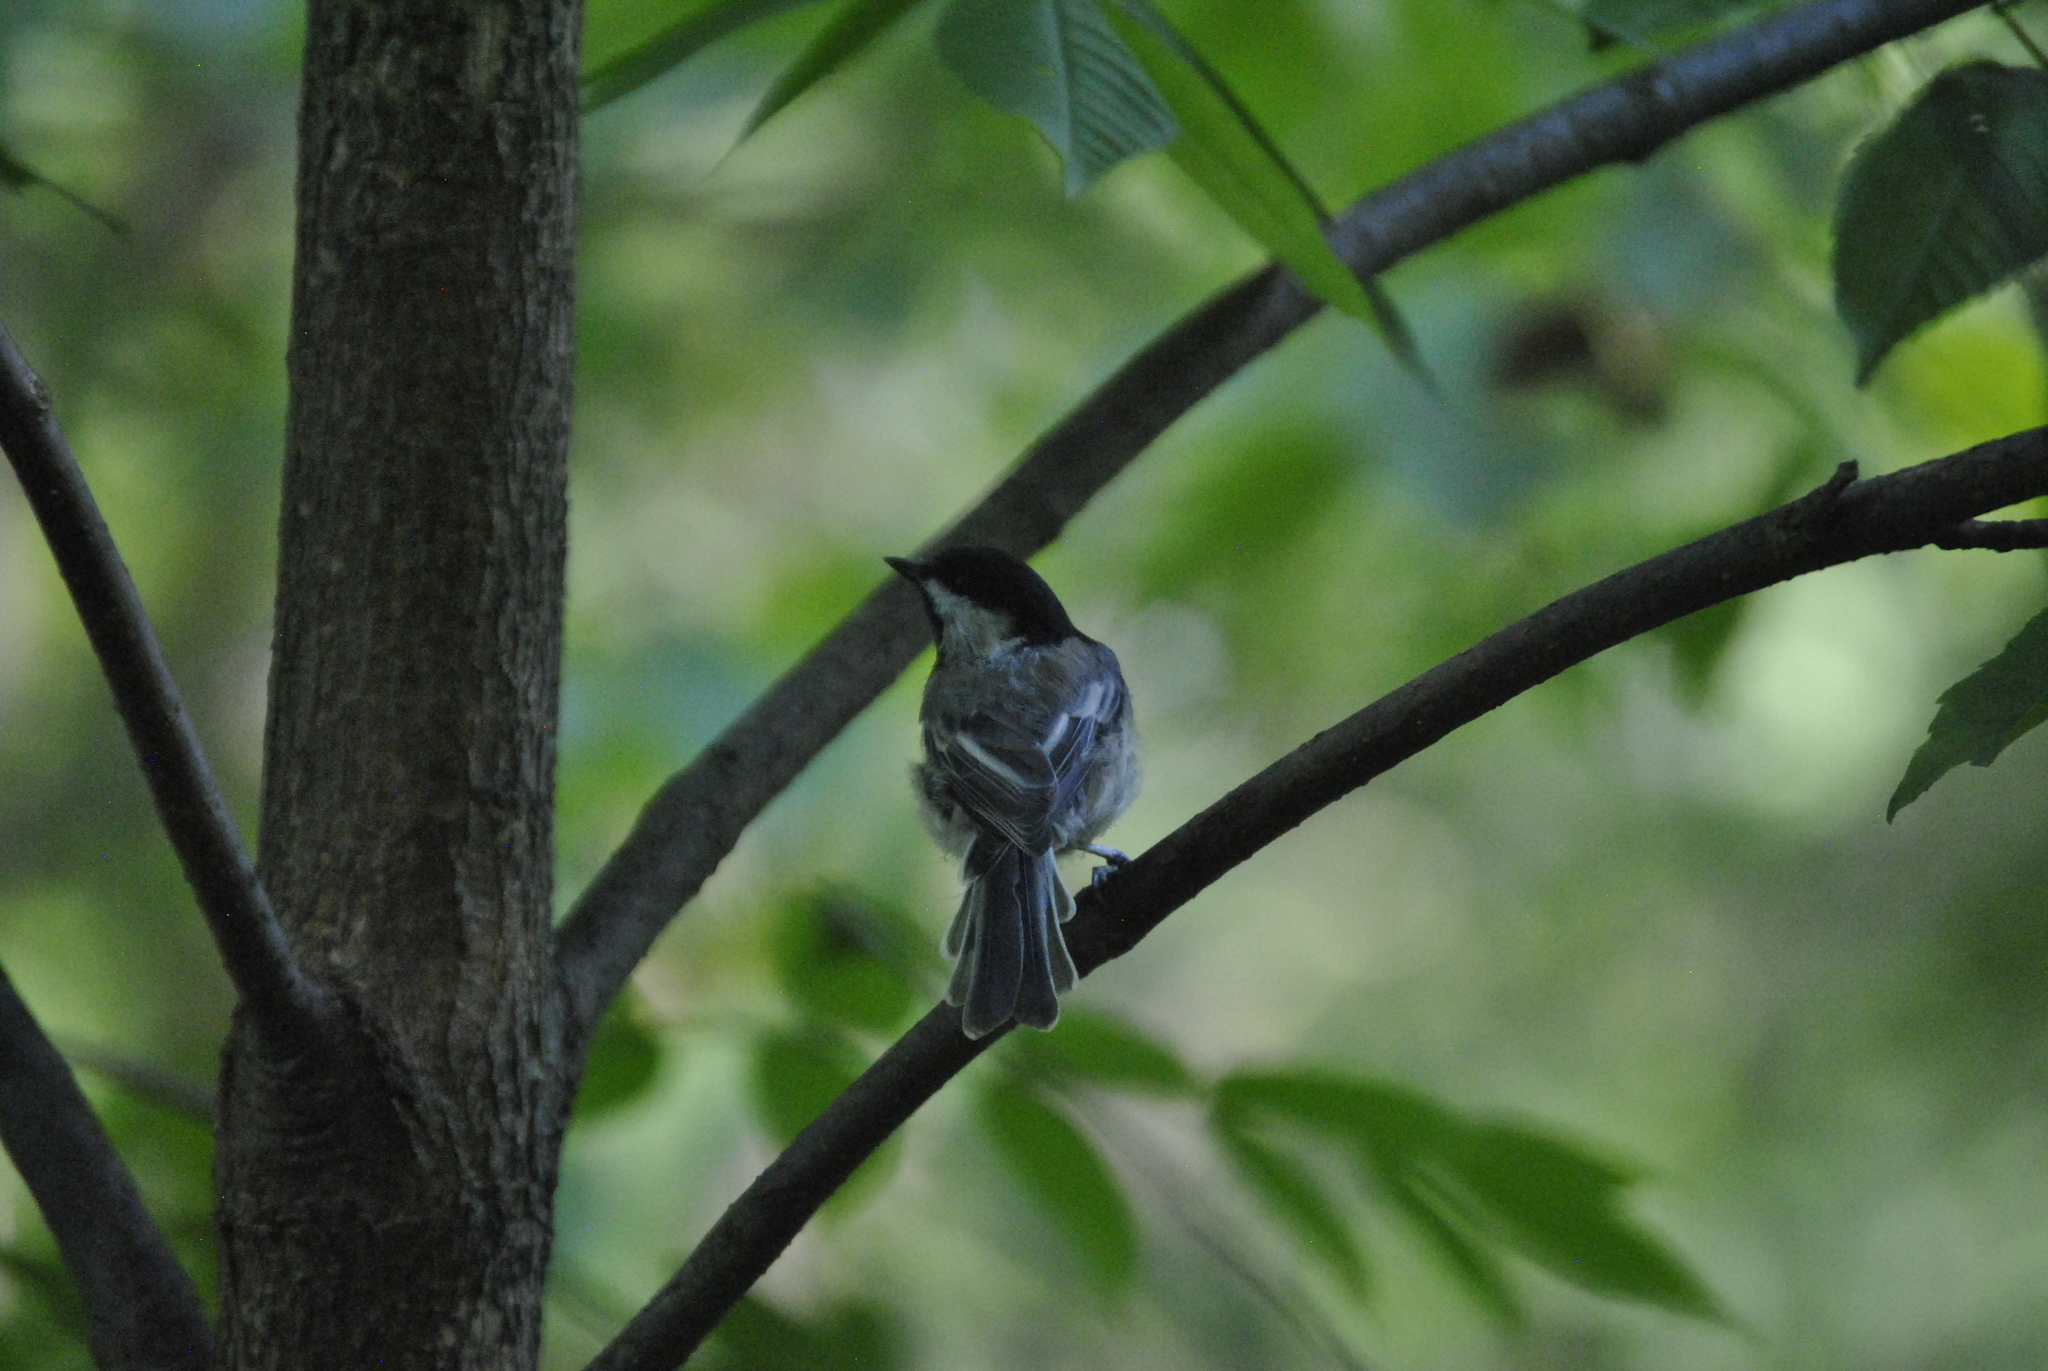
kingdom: Animalia
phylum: Chordata
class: Aves
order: Passeriformes
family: Paridae
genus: Poecile
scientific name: Poecile atricapillus
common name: Black-capped chickadee
